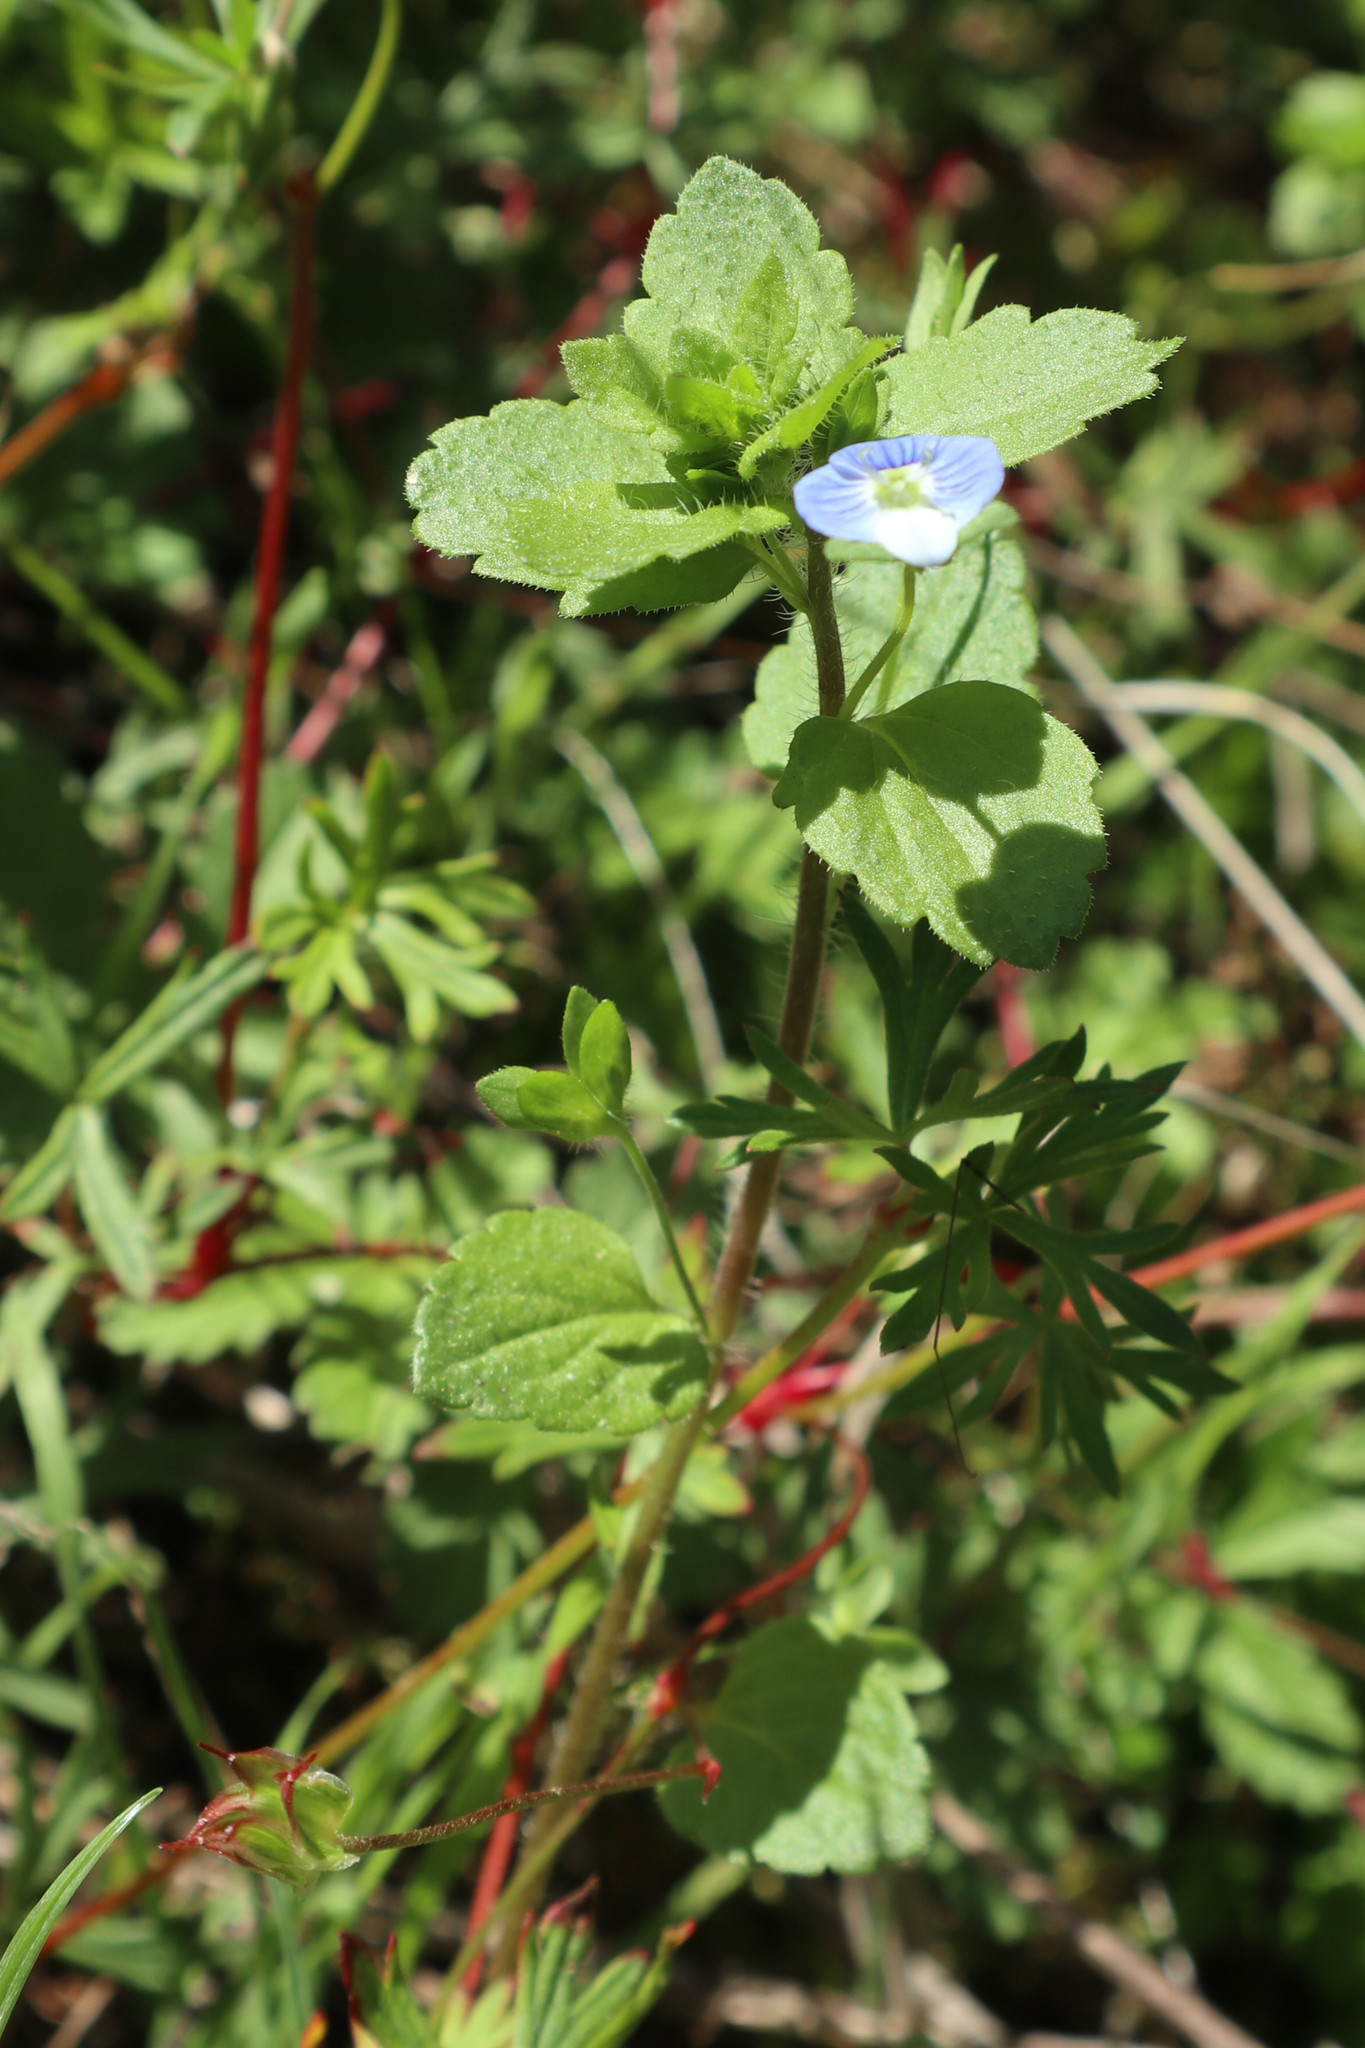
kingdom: Plantae
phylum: Tracheophyta
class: Magnoliopsida
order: Lamiales
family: Plantaginaceae
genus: Veronica
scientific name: Veronica persica
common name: Common field-speedwell
